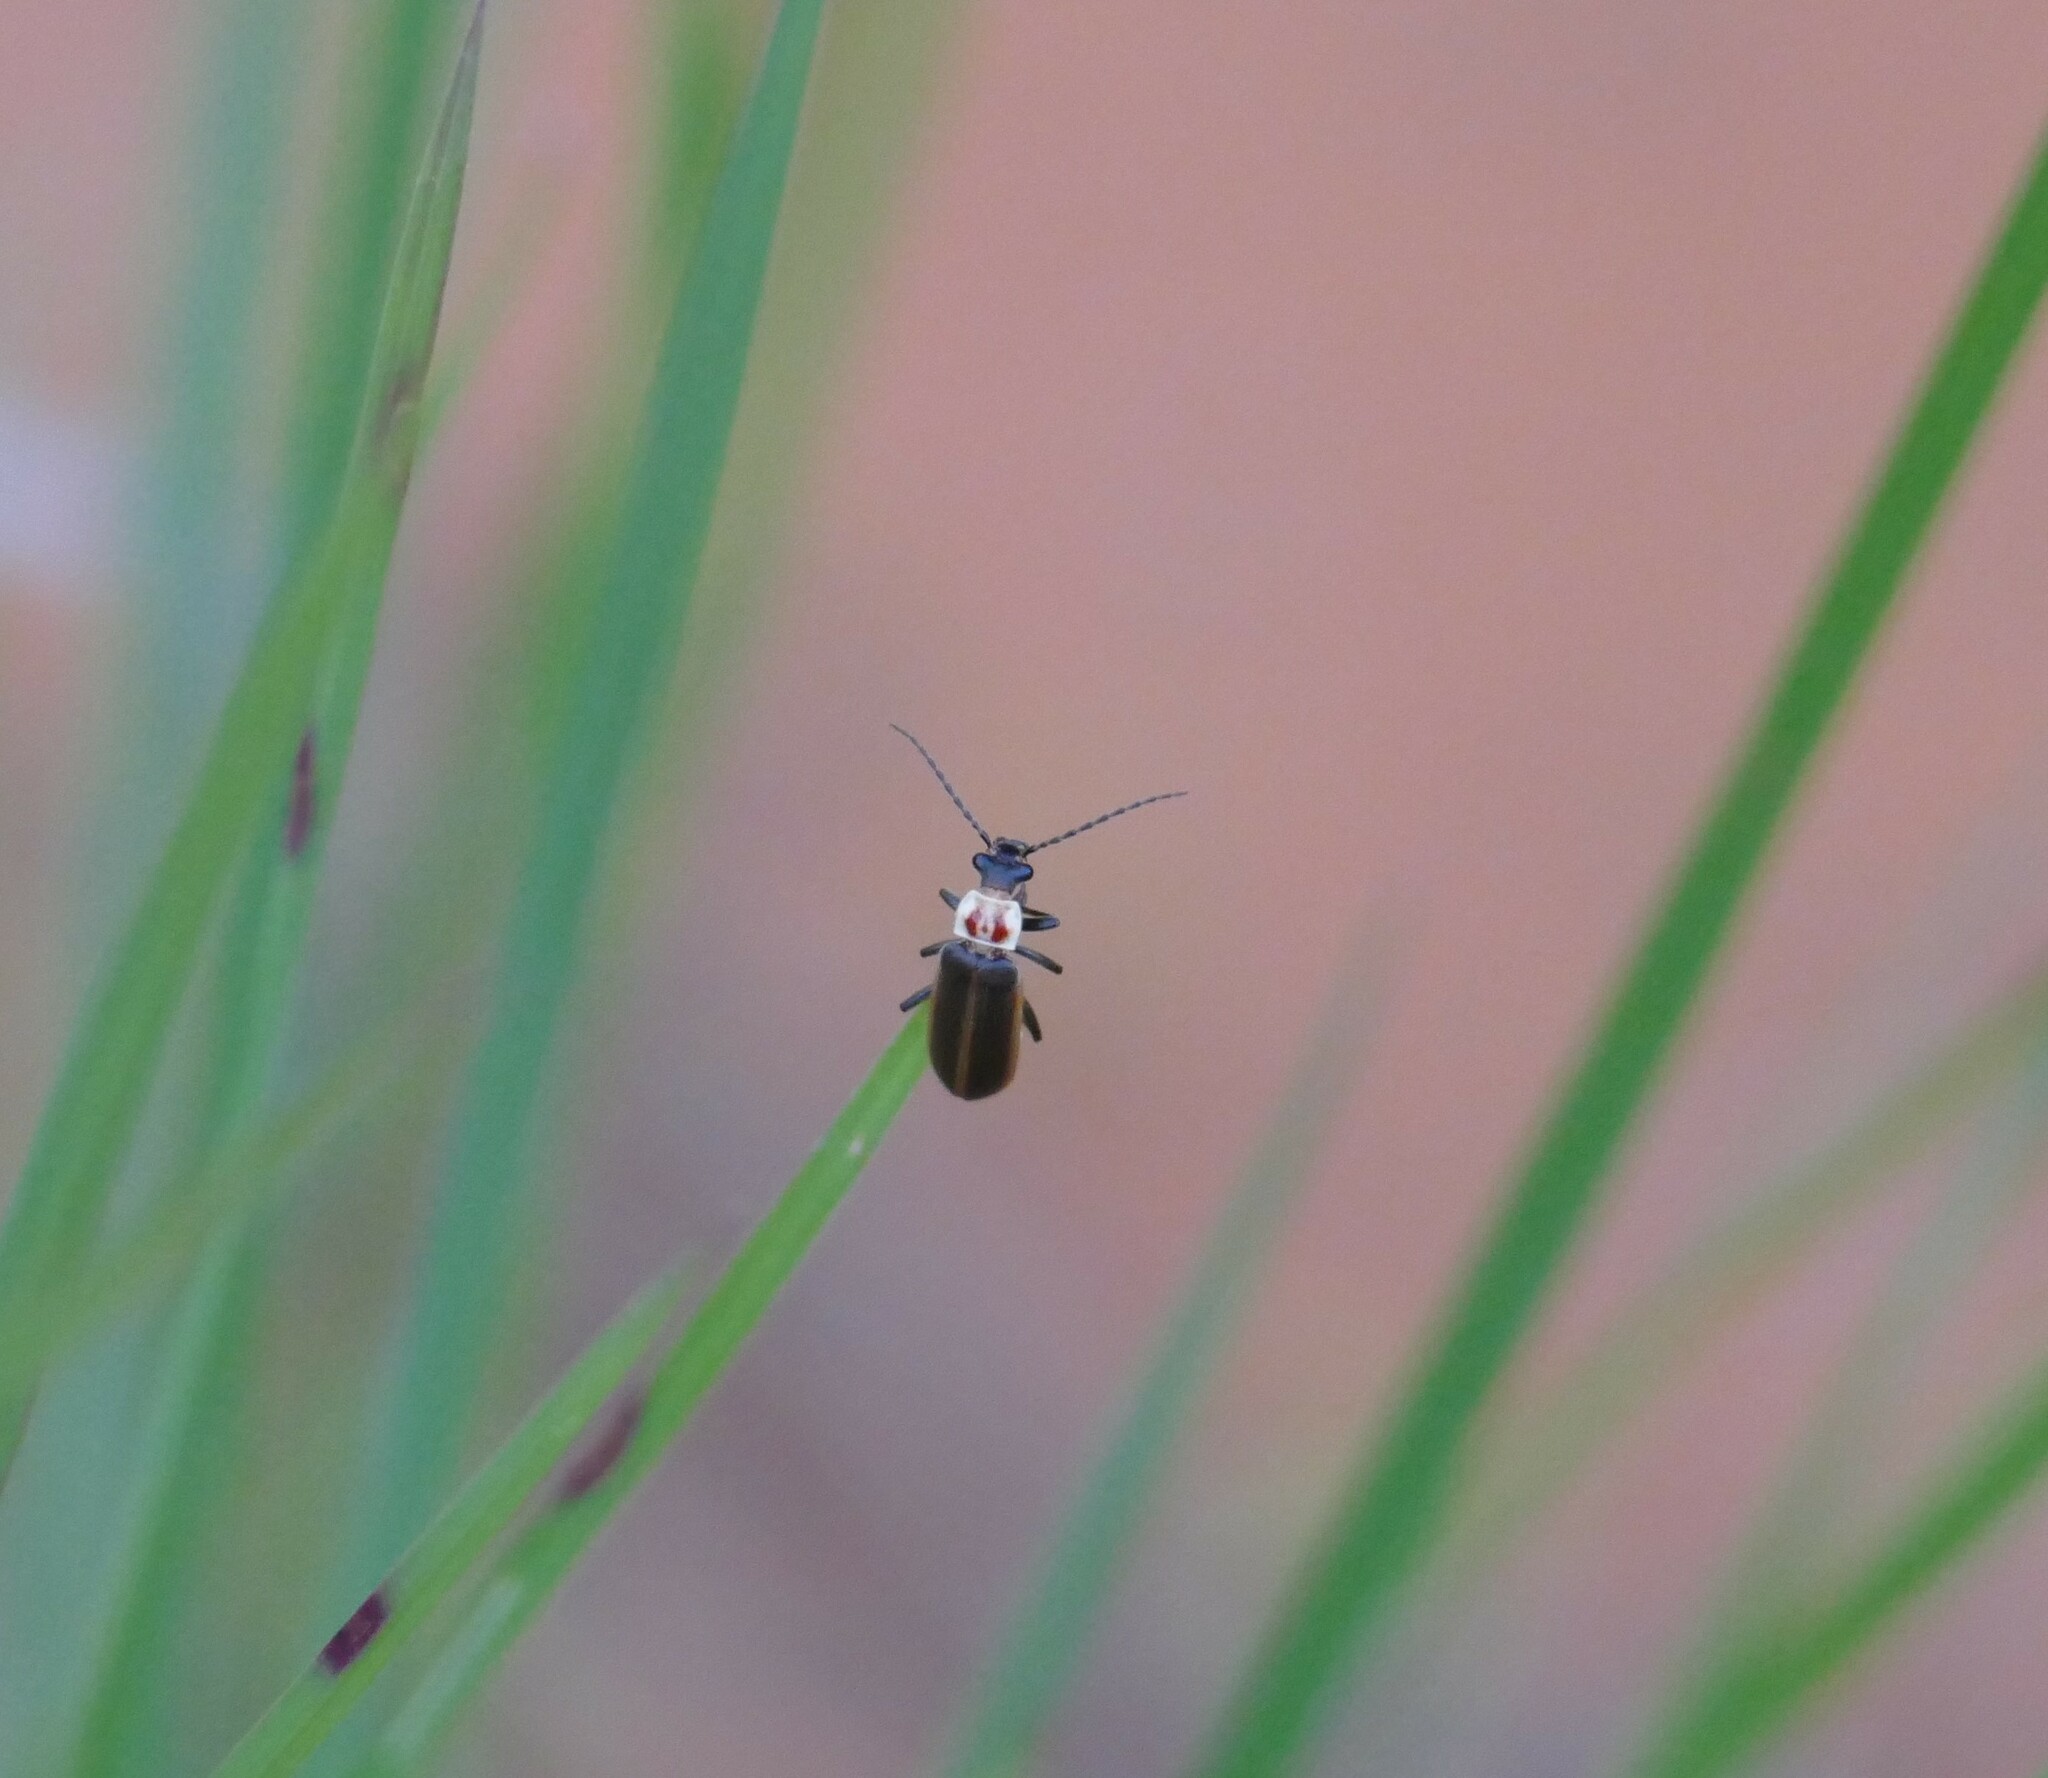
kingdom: Animalia
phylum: Arthropoda
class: Insecta
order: Coleoptera
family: Cantharidae
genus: Podabrus
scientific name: Podabrus knobeli
